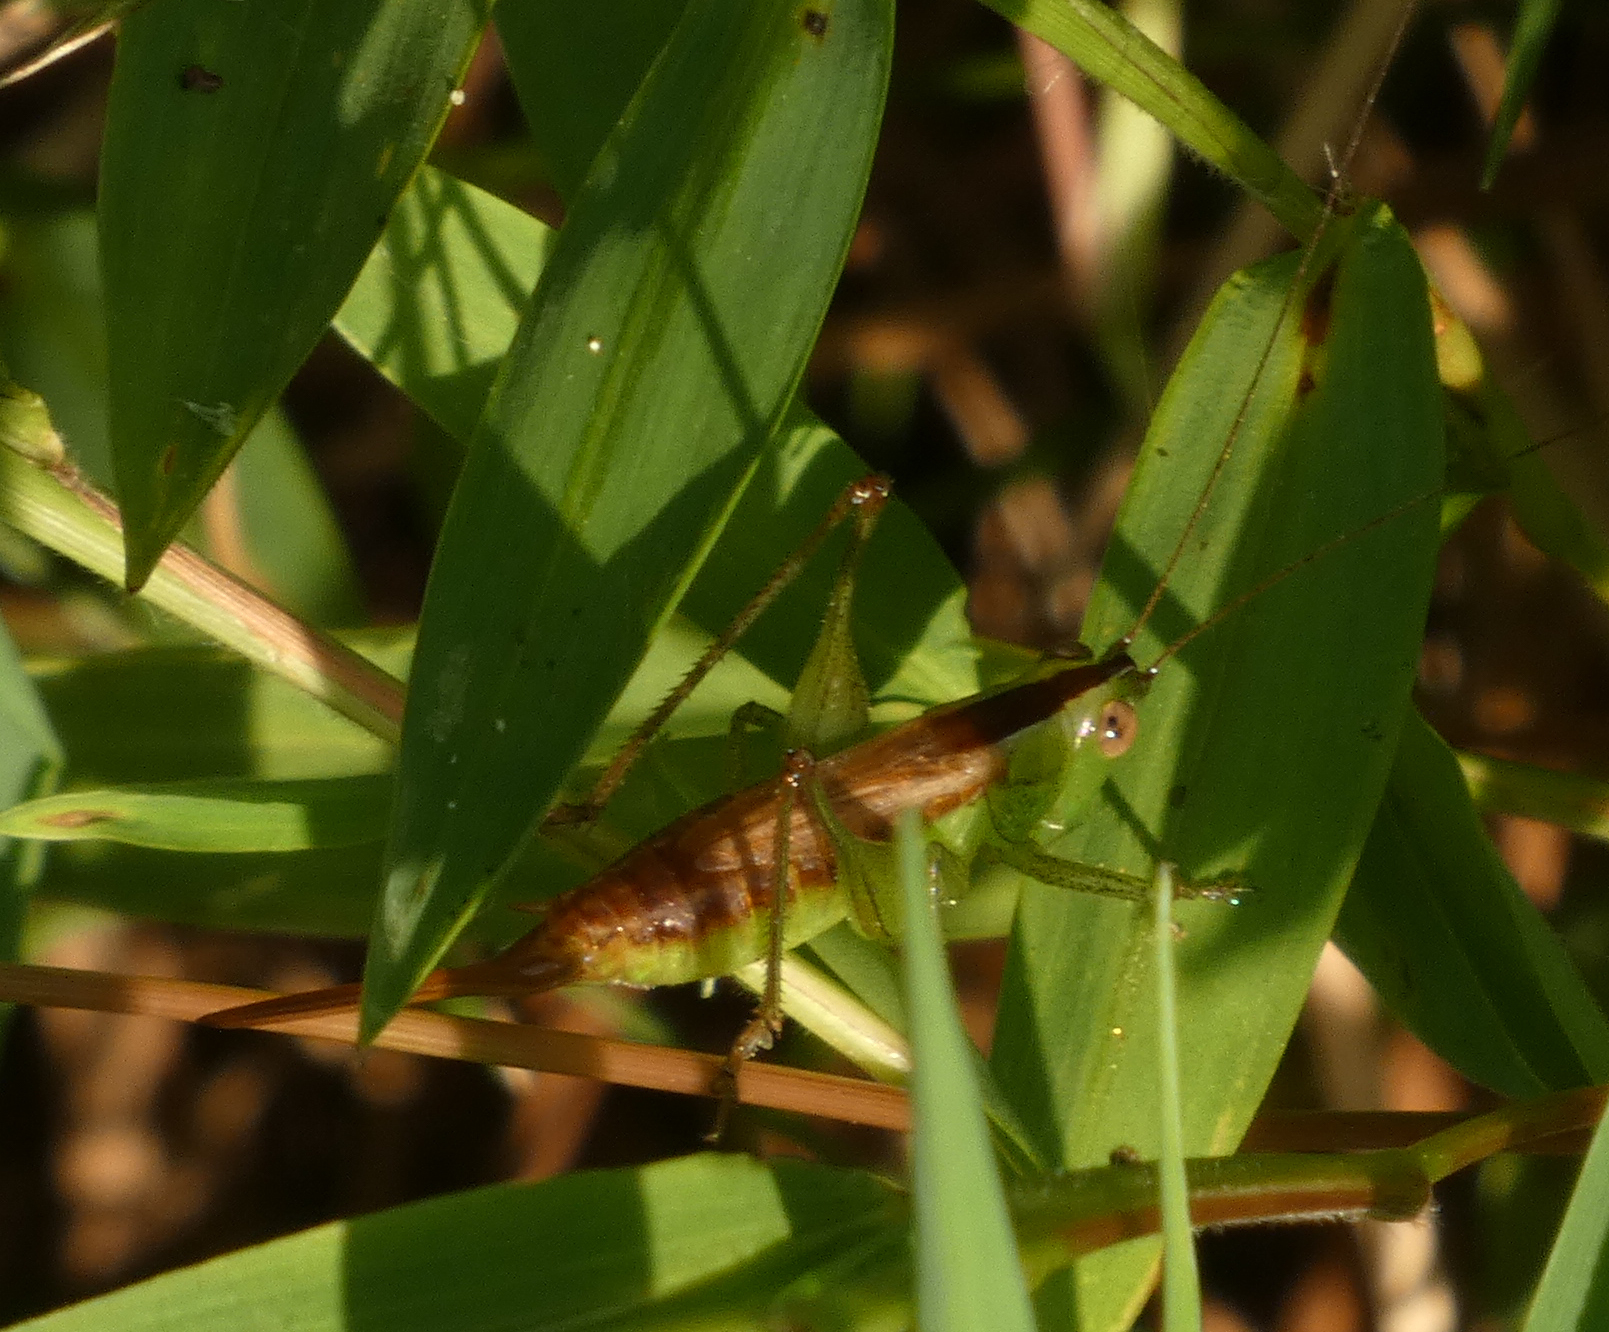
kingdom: Animalia
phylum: Arthropoda
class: Insecta
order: Orthoptera
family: Tettigoniidae
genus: Conocephalus
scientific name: Conocephalus brevipennis
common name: Short-winged meadow katydid
